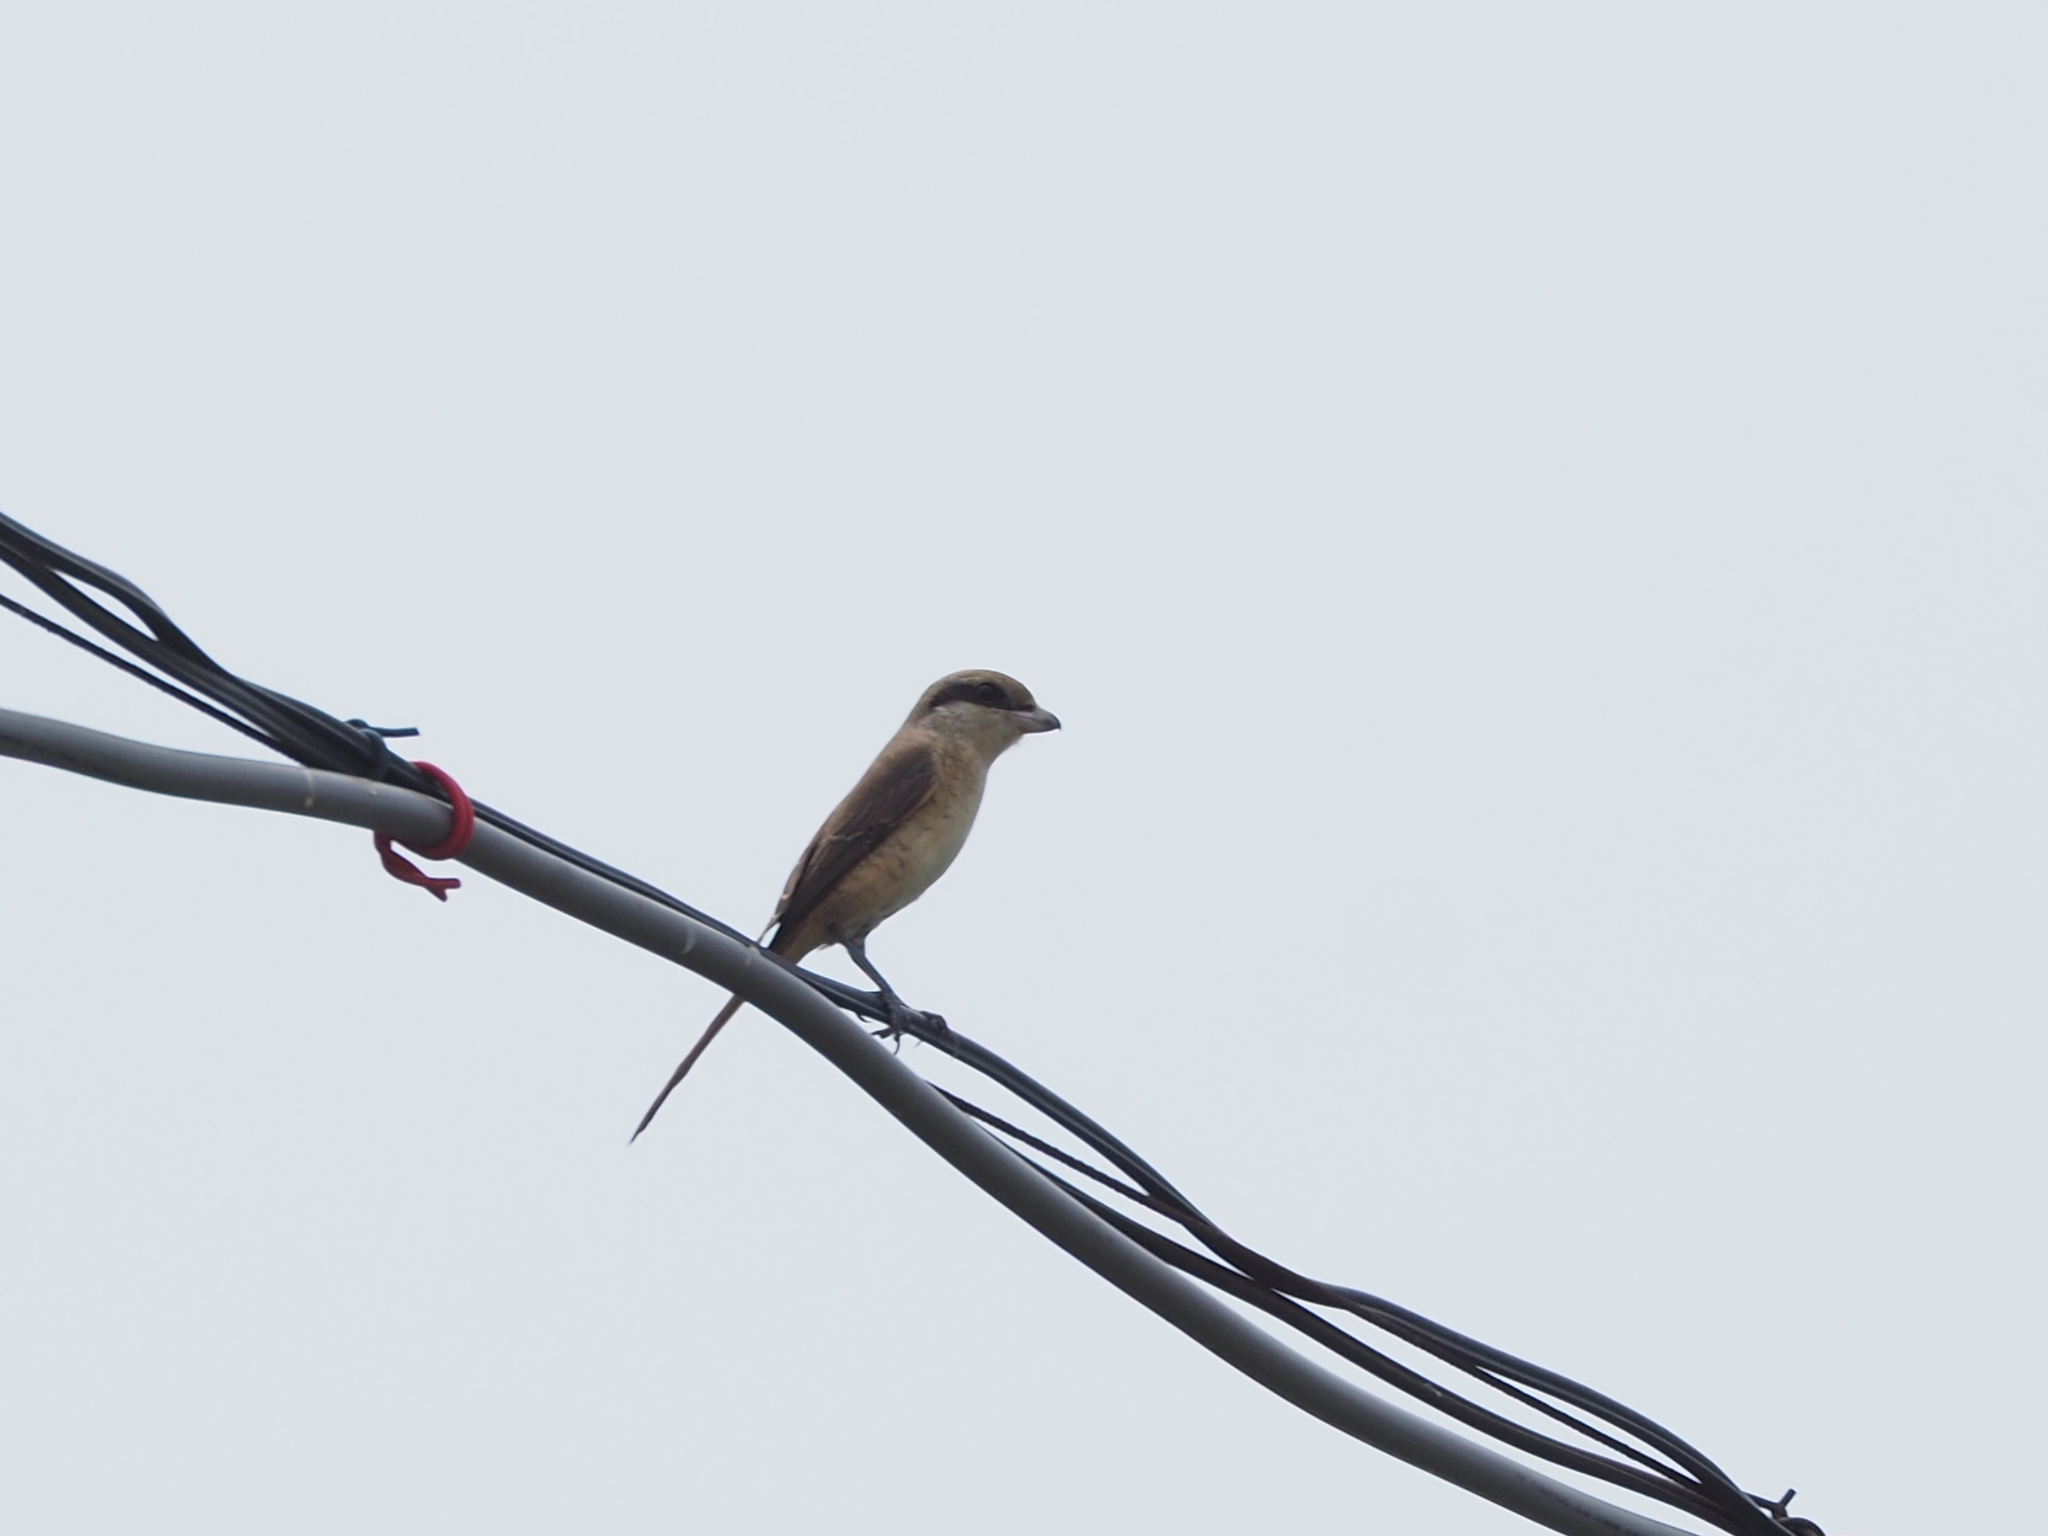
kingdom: Animalia
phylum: Chordata
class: Aves
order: Passeriformes
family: Laniidae
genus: Lanius
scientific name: Lanius cristatus
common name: Brown shrike
